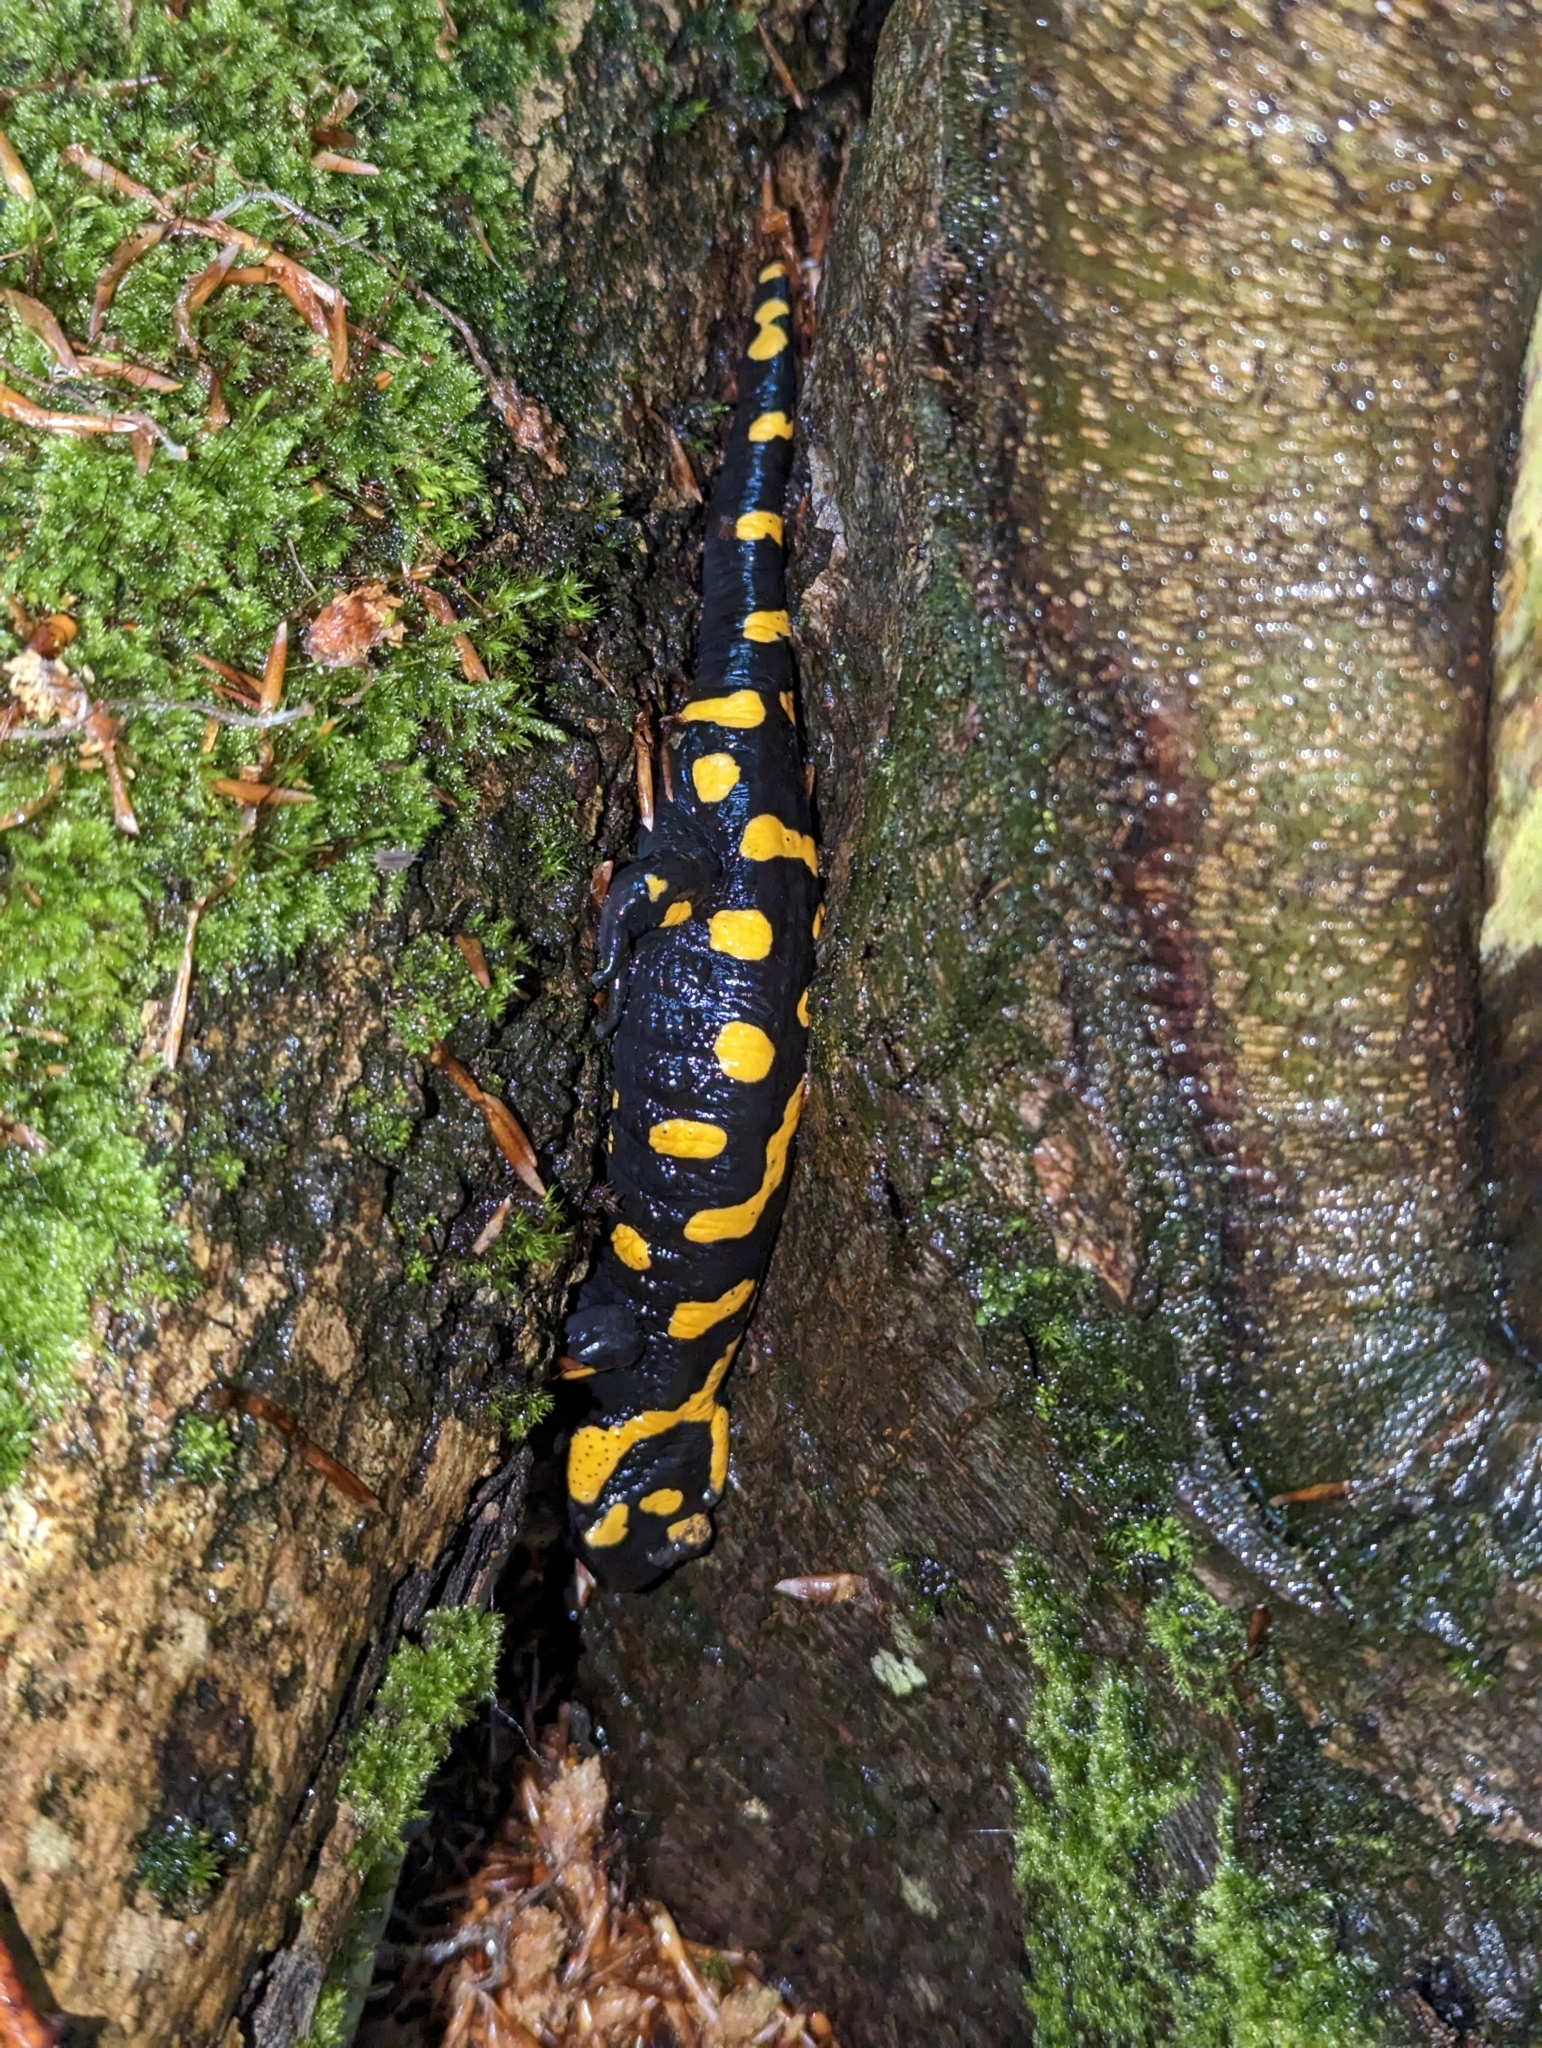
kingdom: Animalia
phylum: Chordata
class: Amphibia
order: Caudata
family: Salamandridae
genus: Salamandra
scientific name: Salamandra salamandra
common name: Fire salamander
